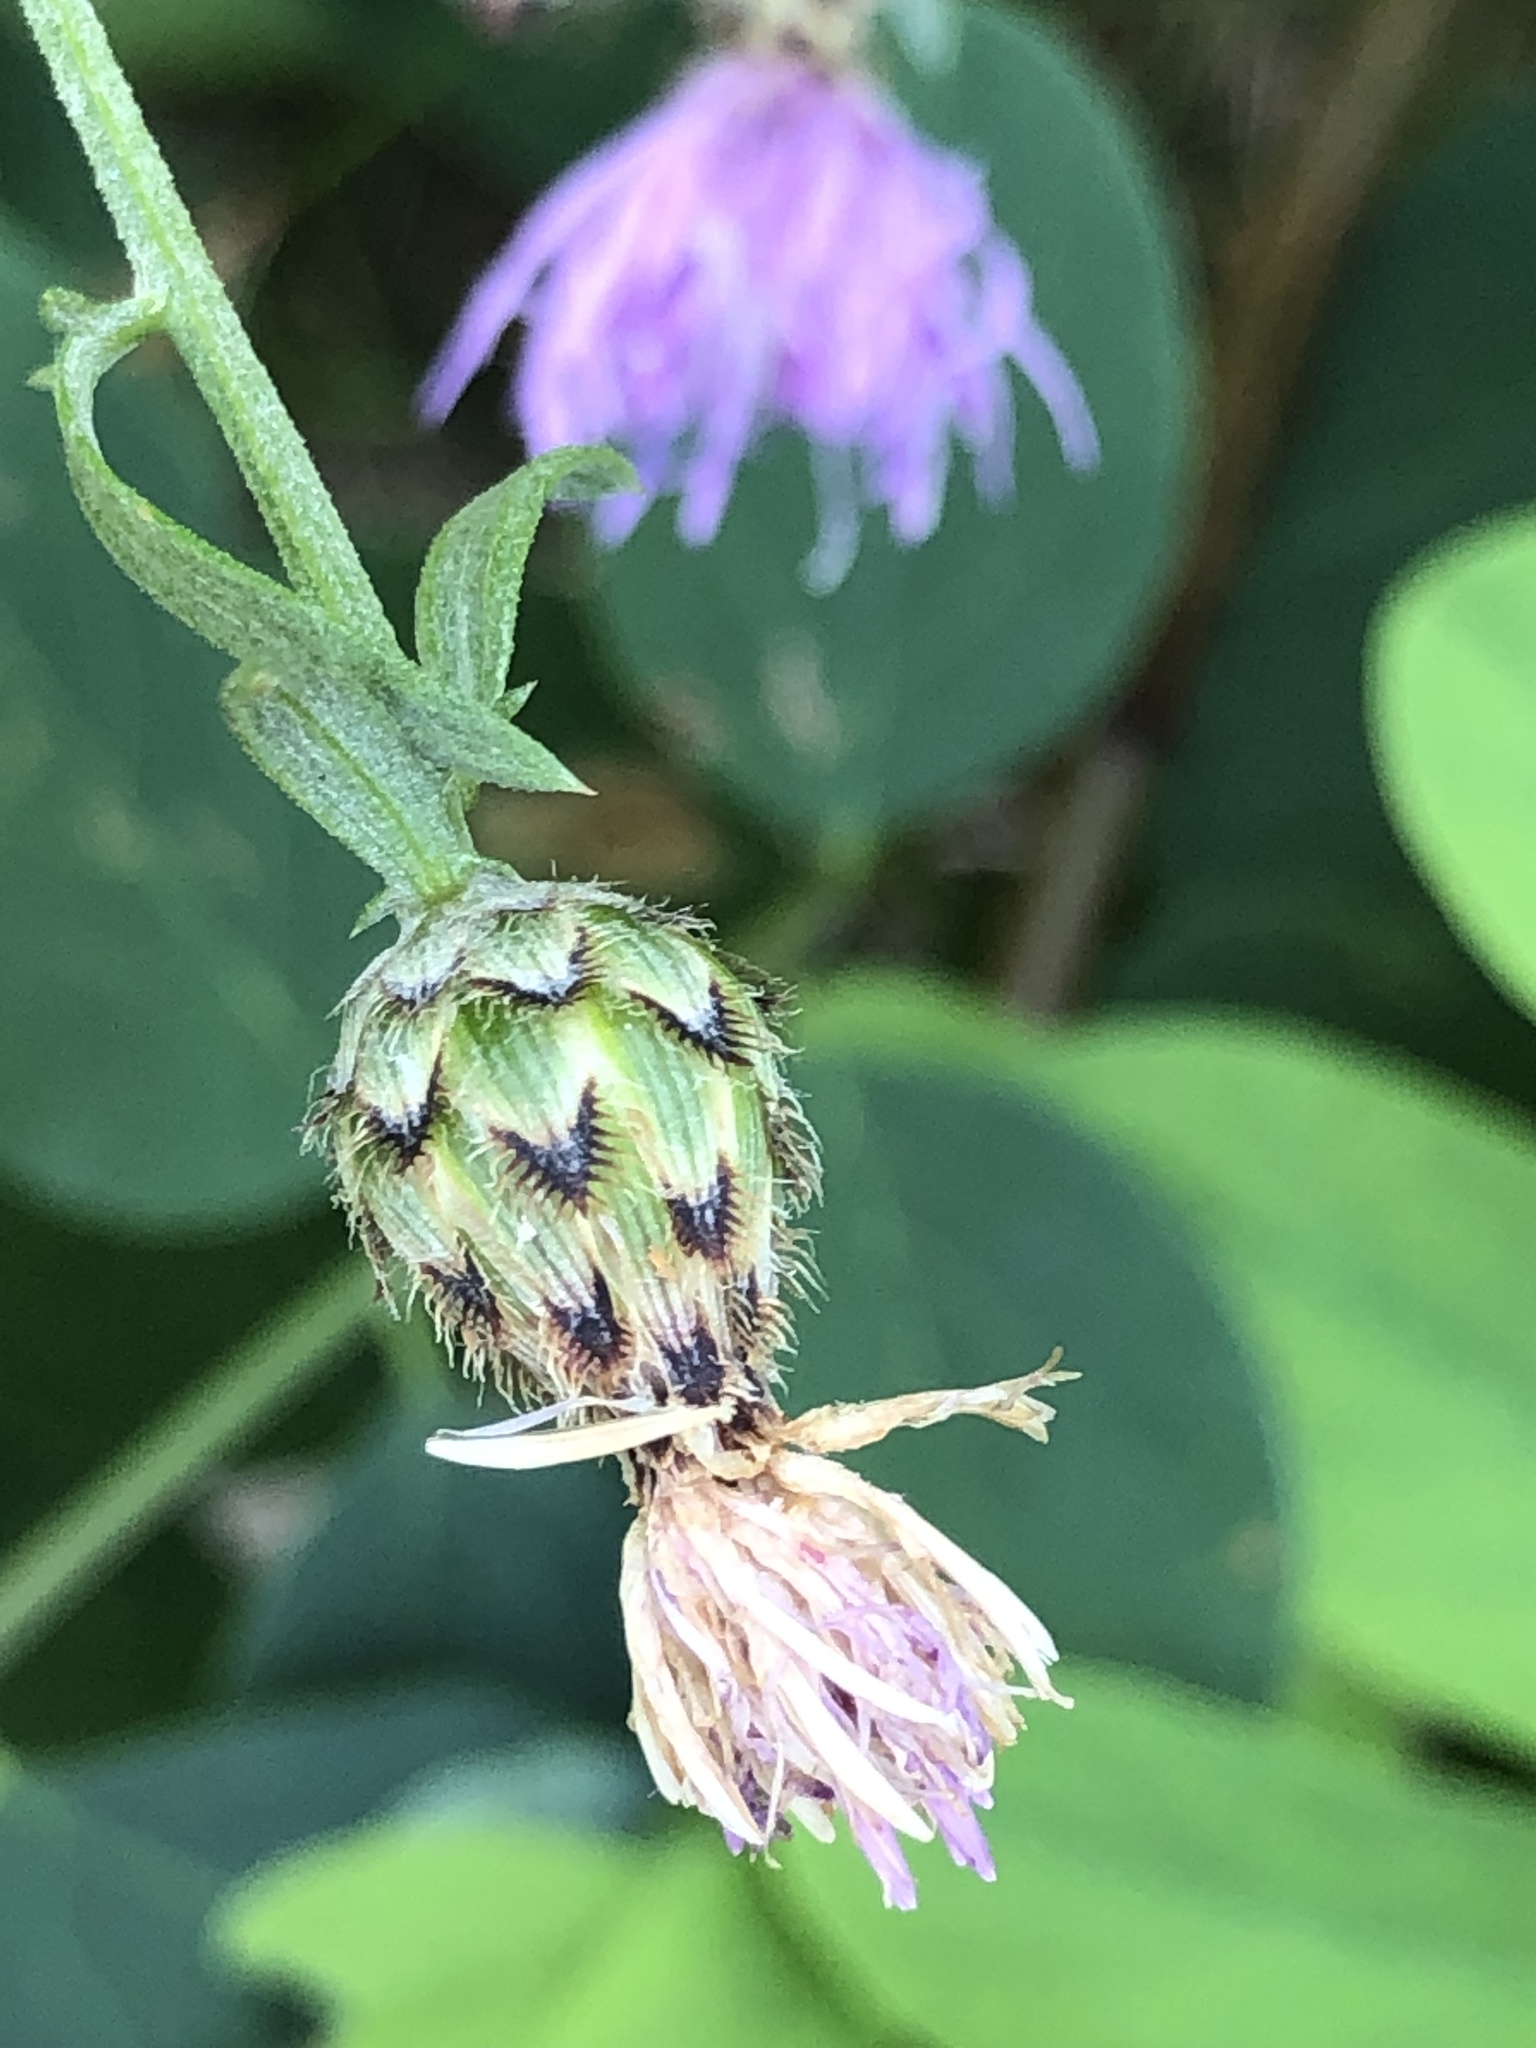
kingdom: Plantae
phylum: Tracheophyta
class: Magnoliopsida
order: Asterales
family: Asteraceae
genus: Centaurea
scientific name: Centaurea stoebe
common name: Spotted knapweed
